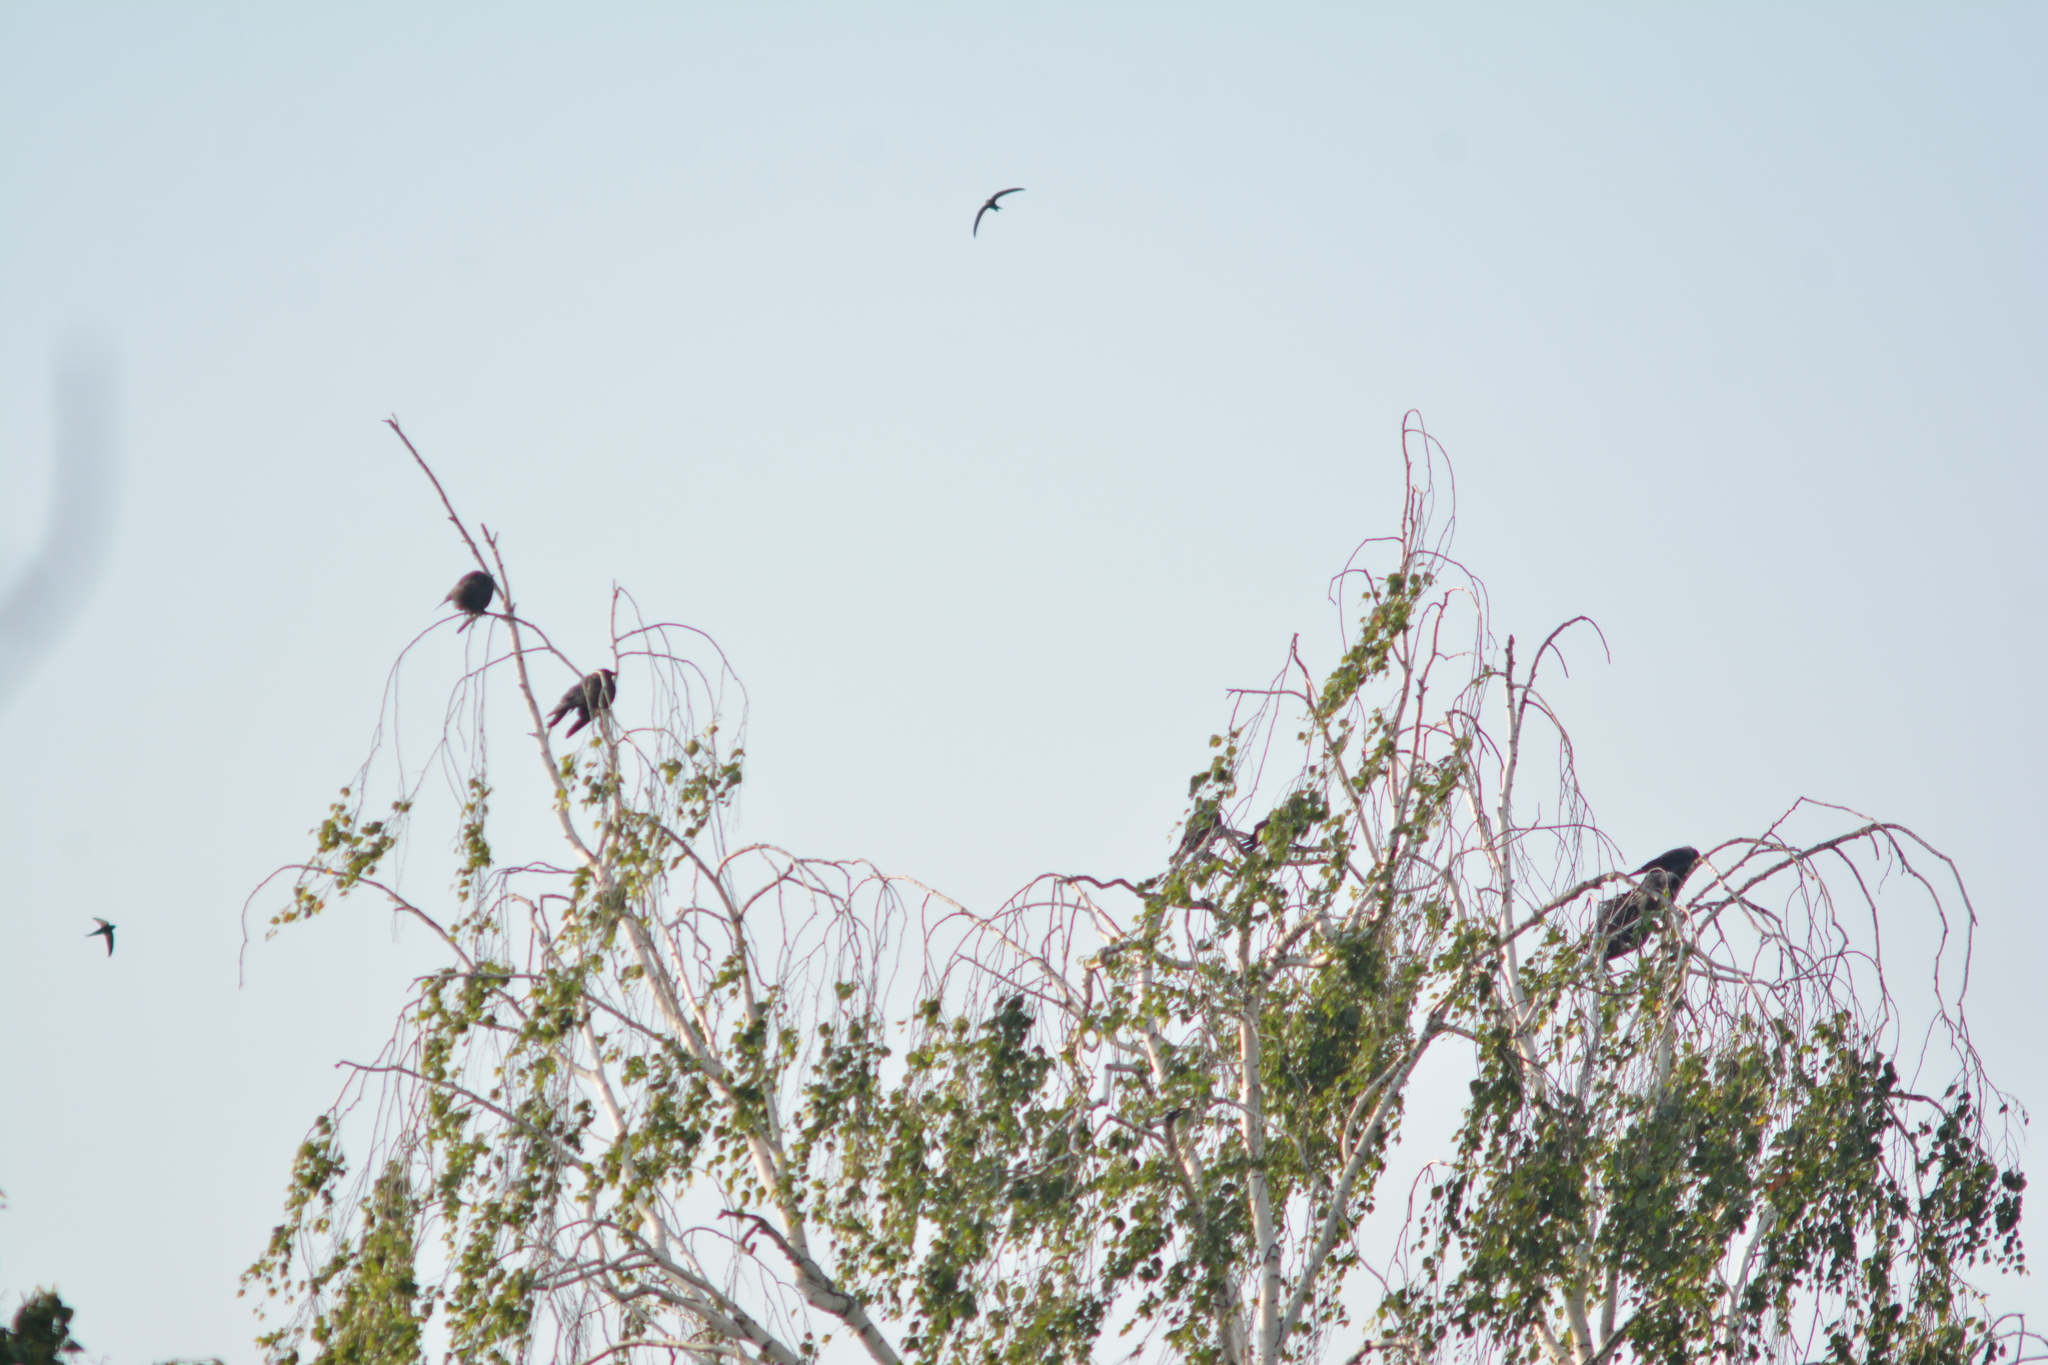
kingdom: Animalia
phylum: Chordata
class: Aves
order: Passeriformes
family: Corvidae
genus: Coloeus
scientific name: Coloeus monedula
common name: Western jackdaw
